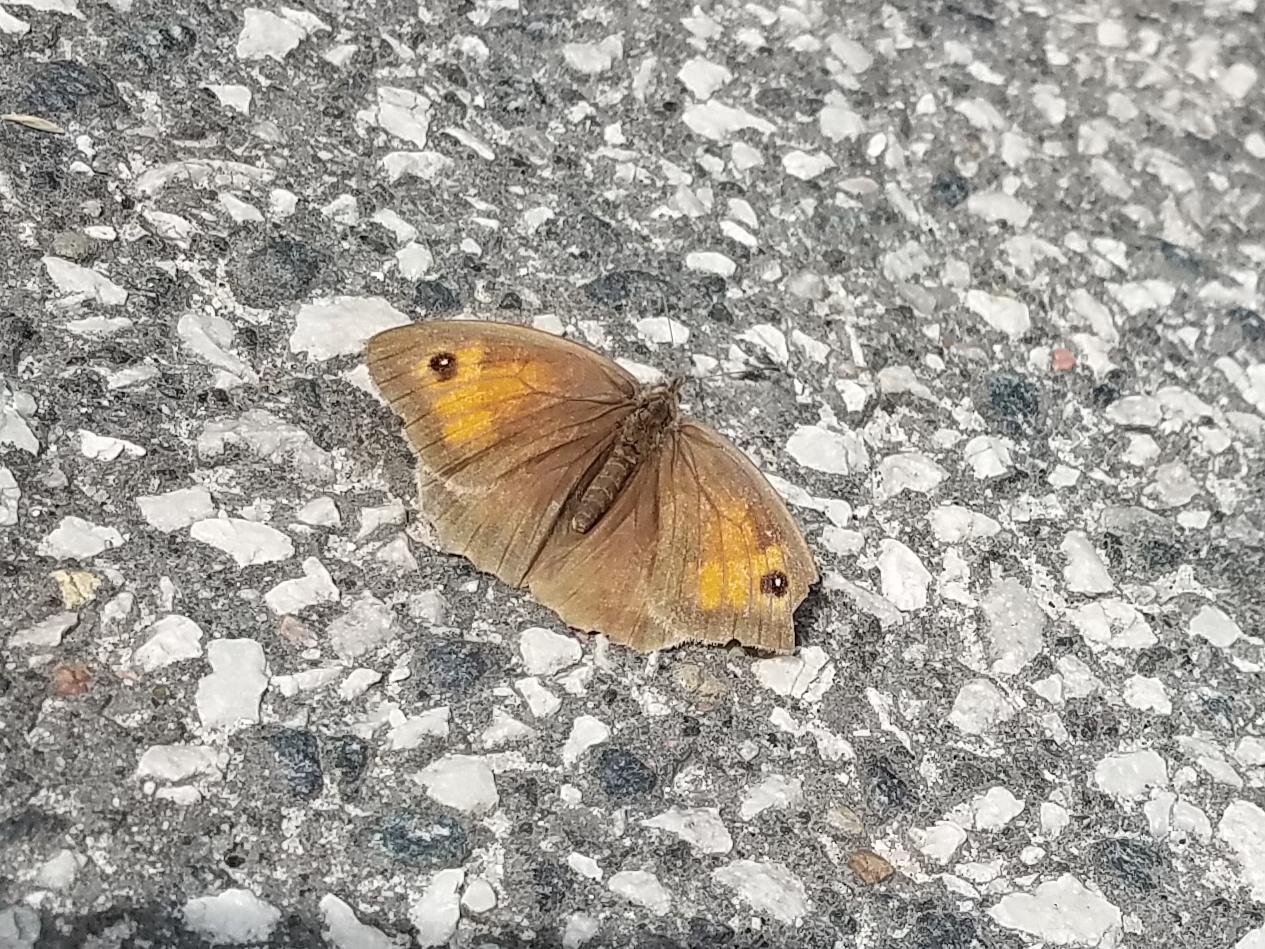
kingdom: Animalia
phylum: Arthropoda
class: Insecta
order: Lepidoptera
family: Nymphalidae
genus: Maniola
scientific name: Maniola jurtina
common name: Meadow brown
